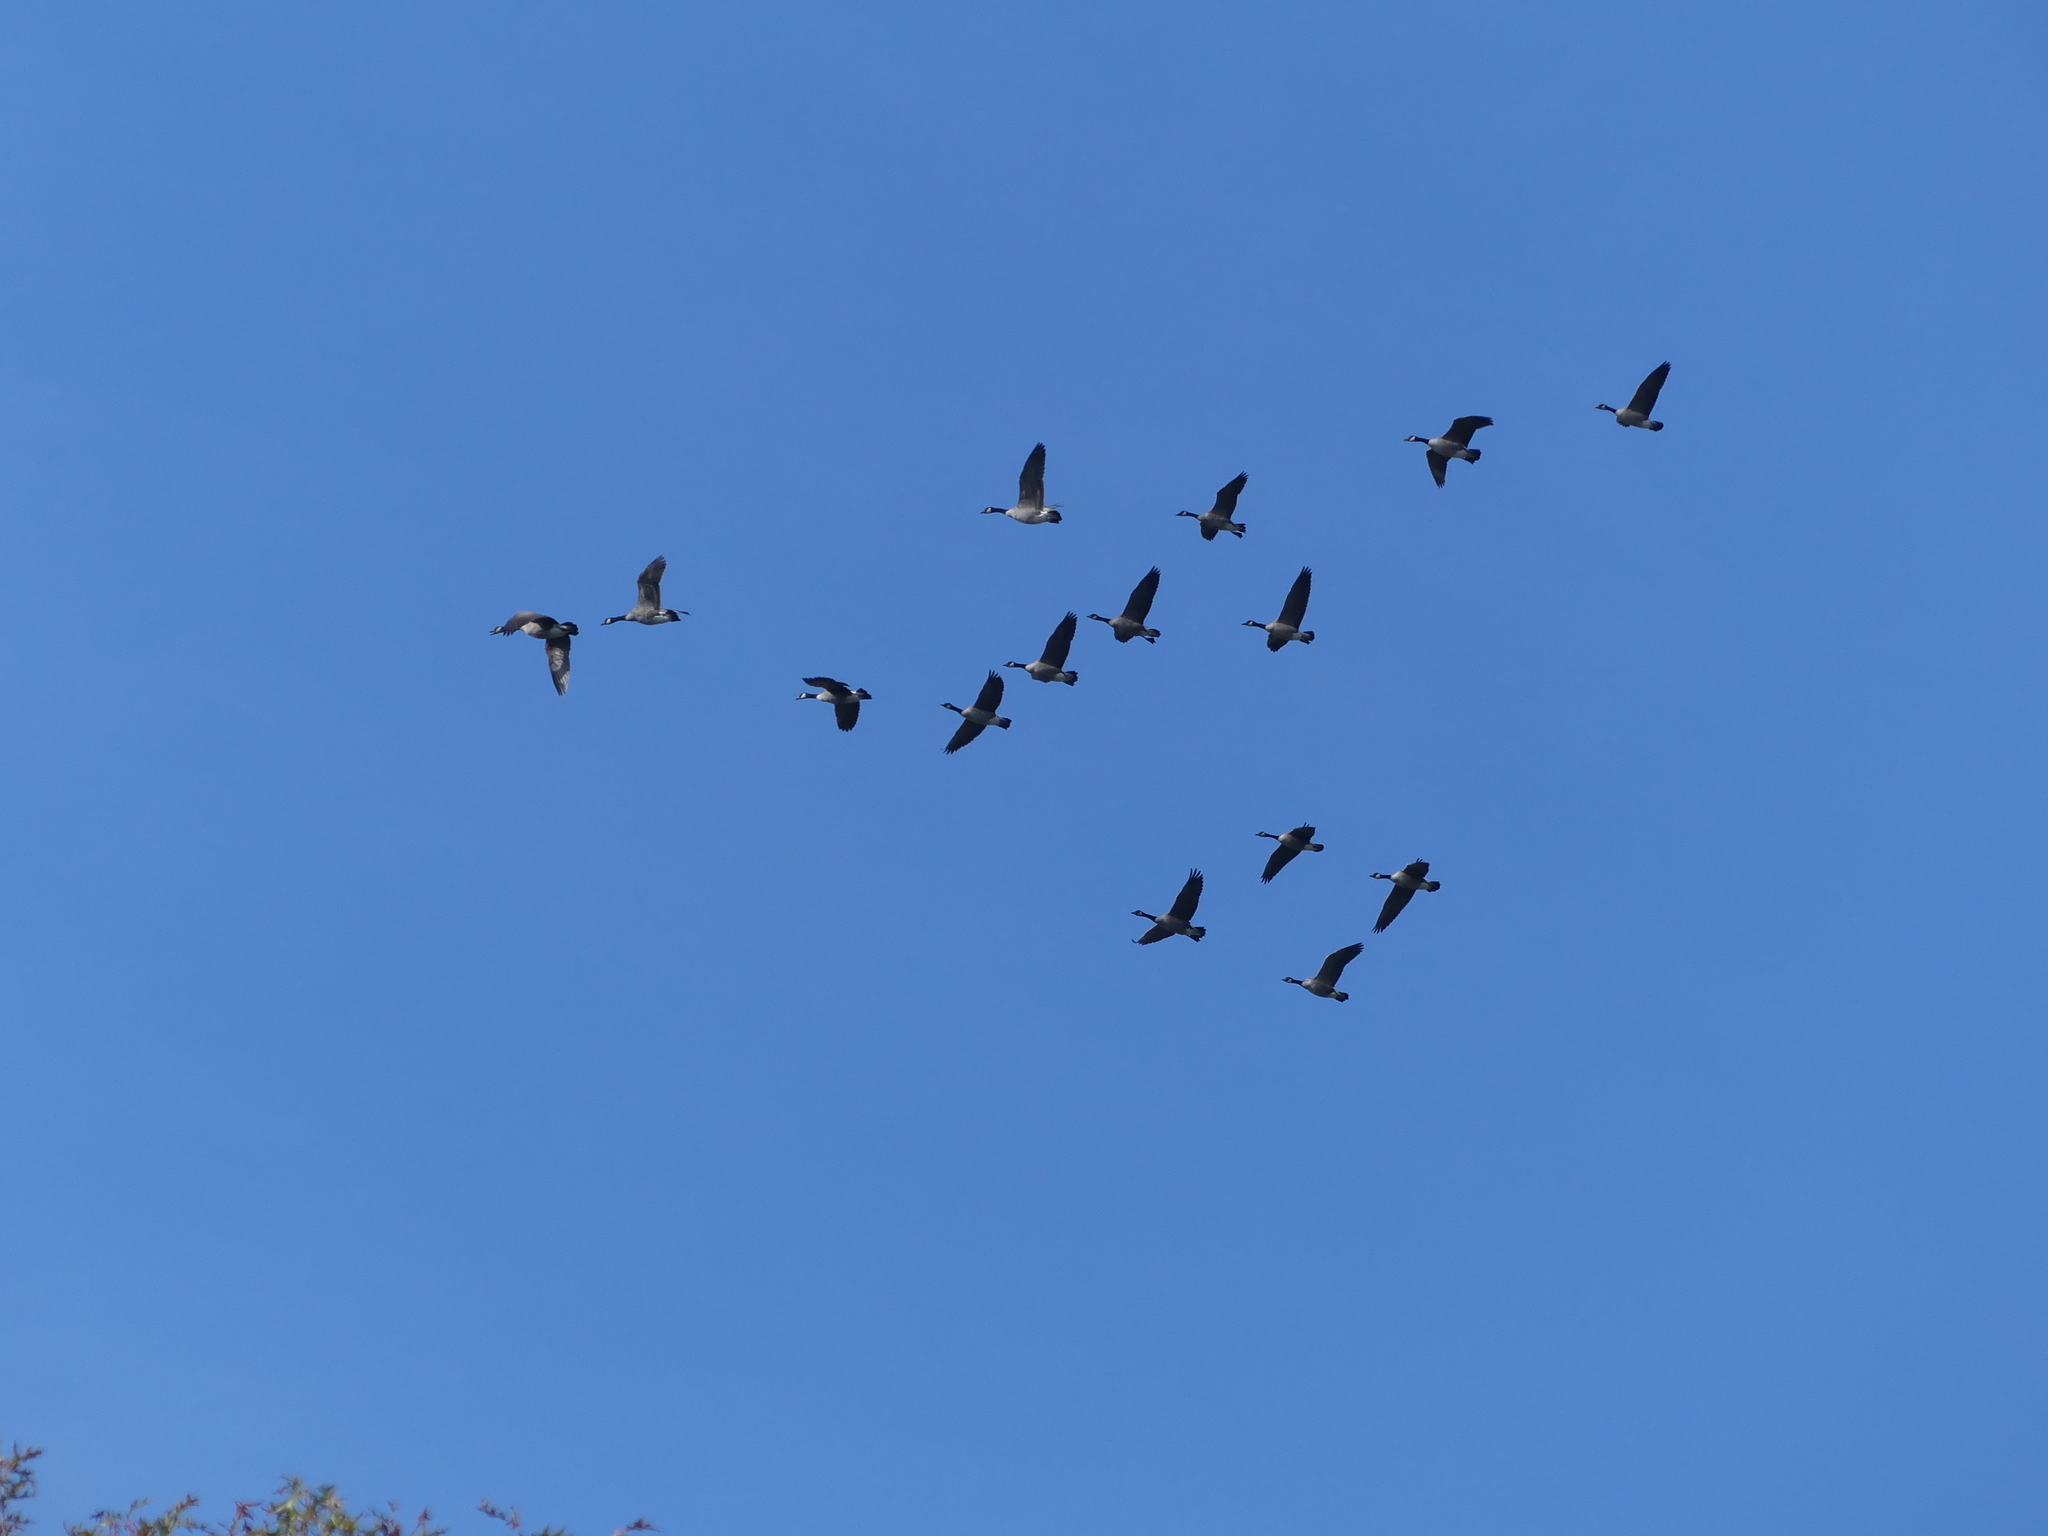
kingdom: Animalia
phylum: Chordata
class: Aves
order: Anseriformes
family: Anatidae
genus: Branta
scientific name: Branta canadensis
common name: Canada goose
